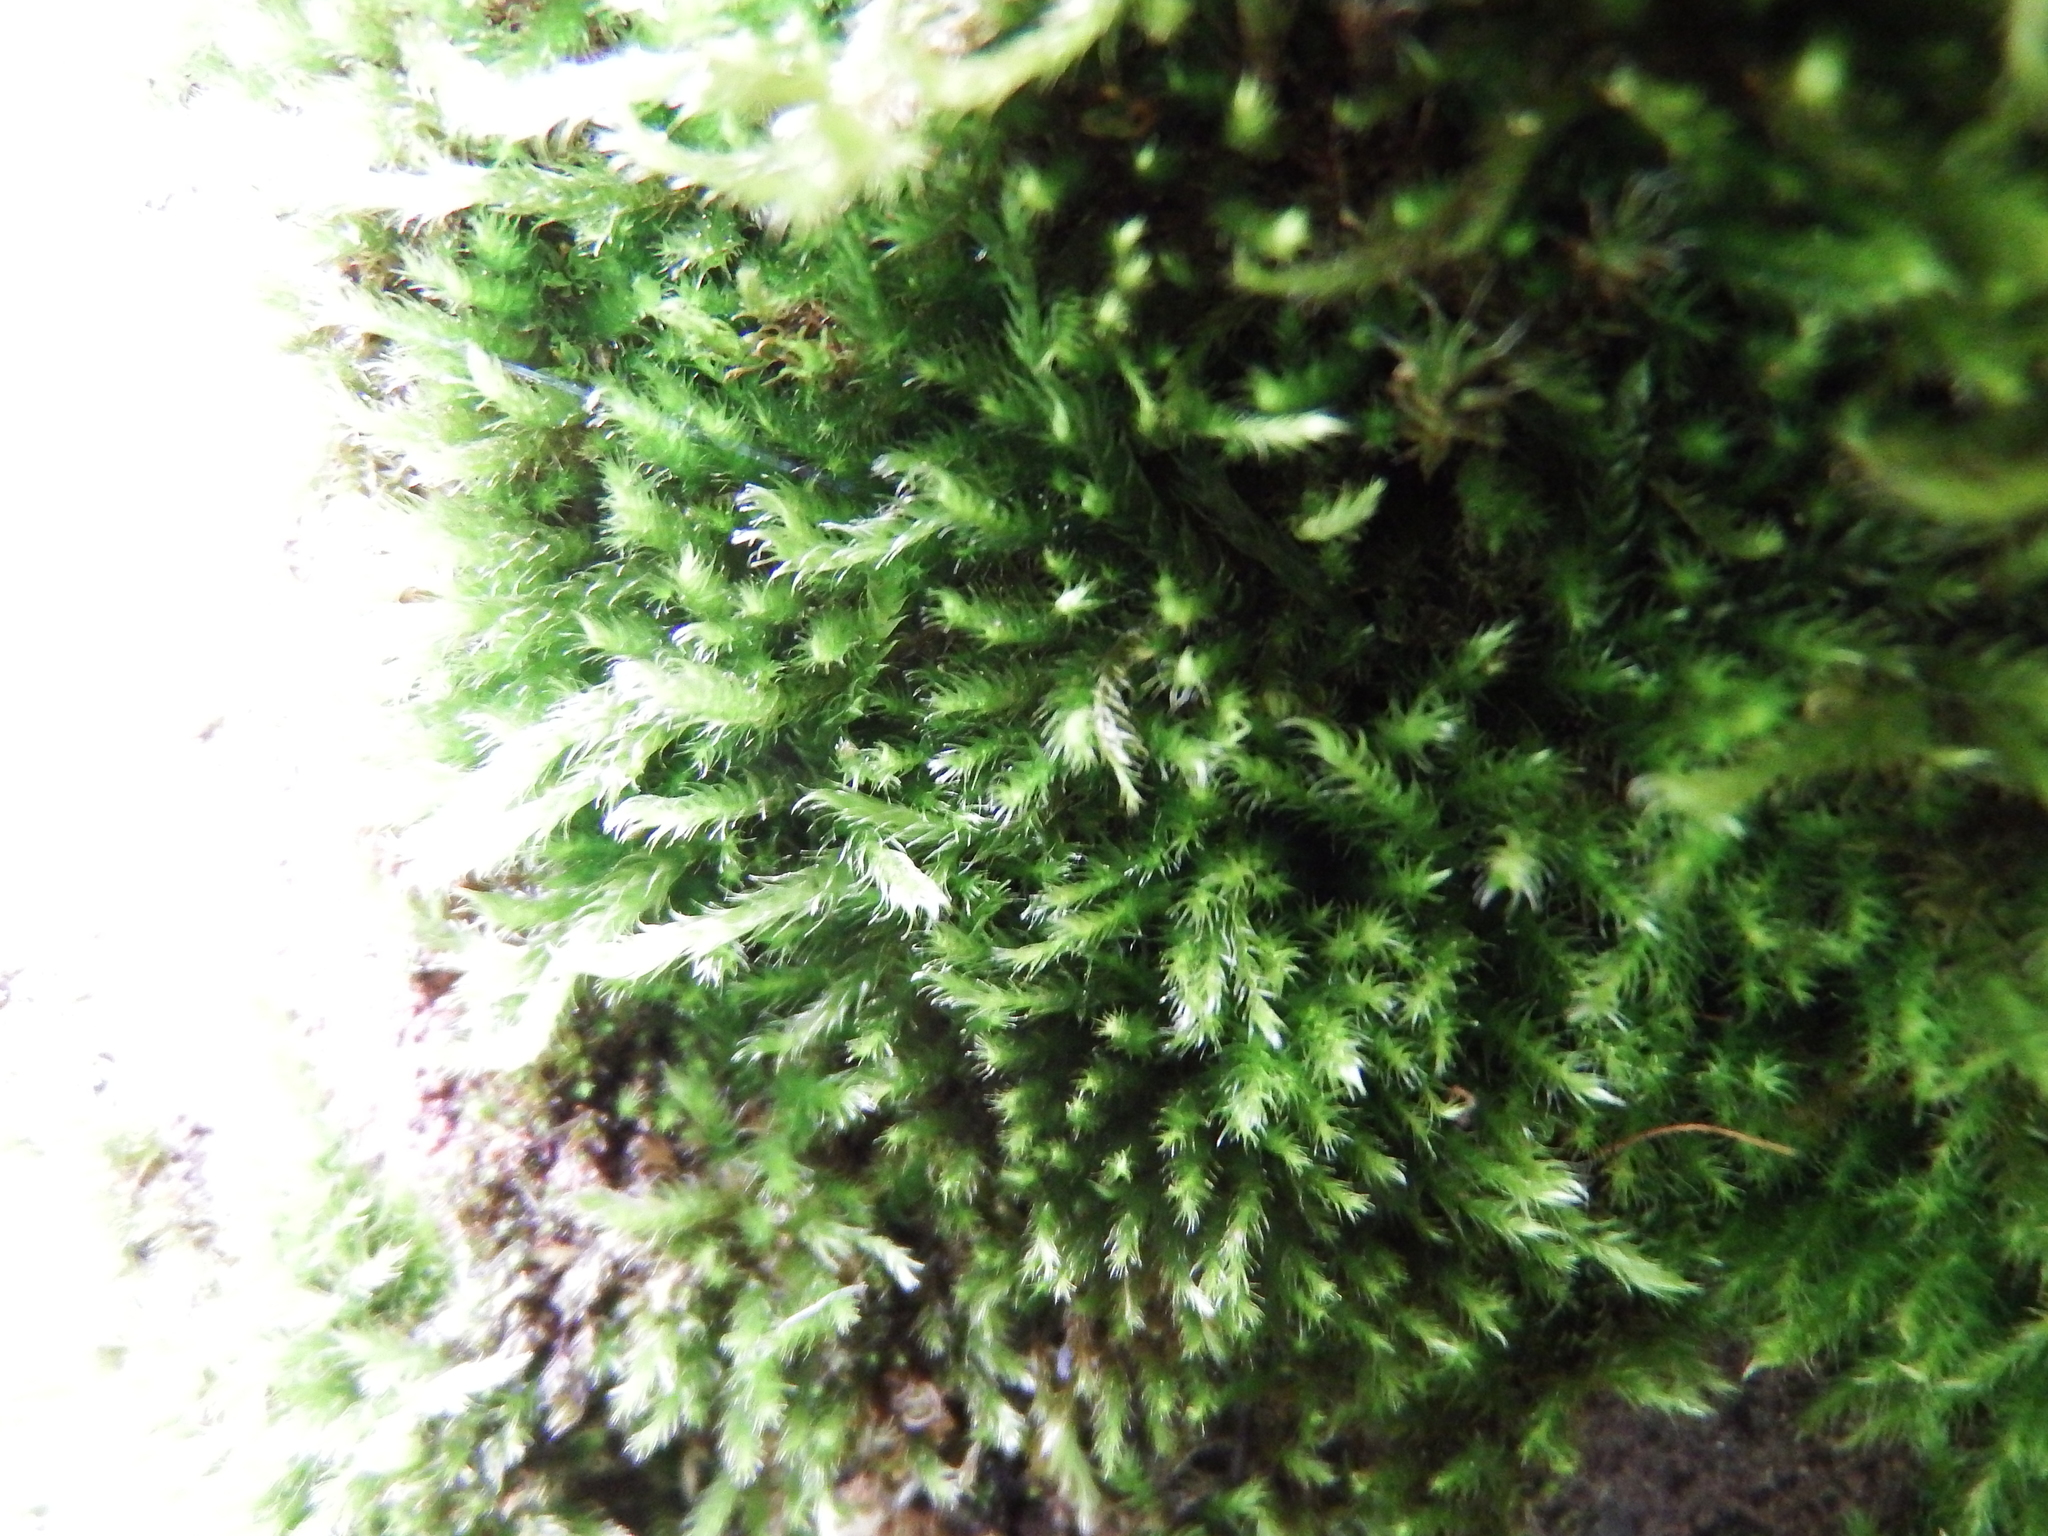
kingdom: Plantae
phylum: Bryophyta
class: Bryopsida
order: Hypnales
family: Brachytheciaceae
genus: Homalothecium
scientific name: Homalothecium sericeum
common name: Silky wall feather-moss
